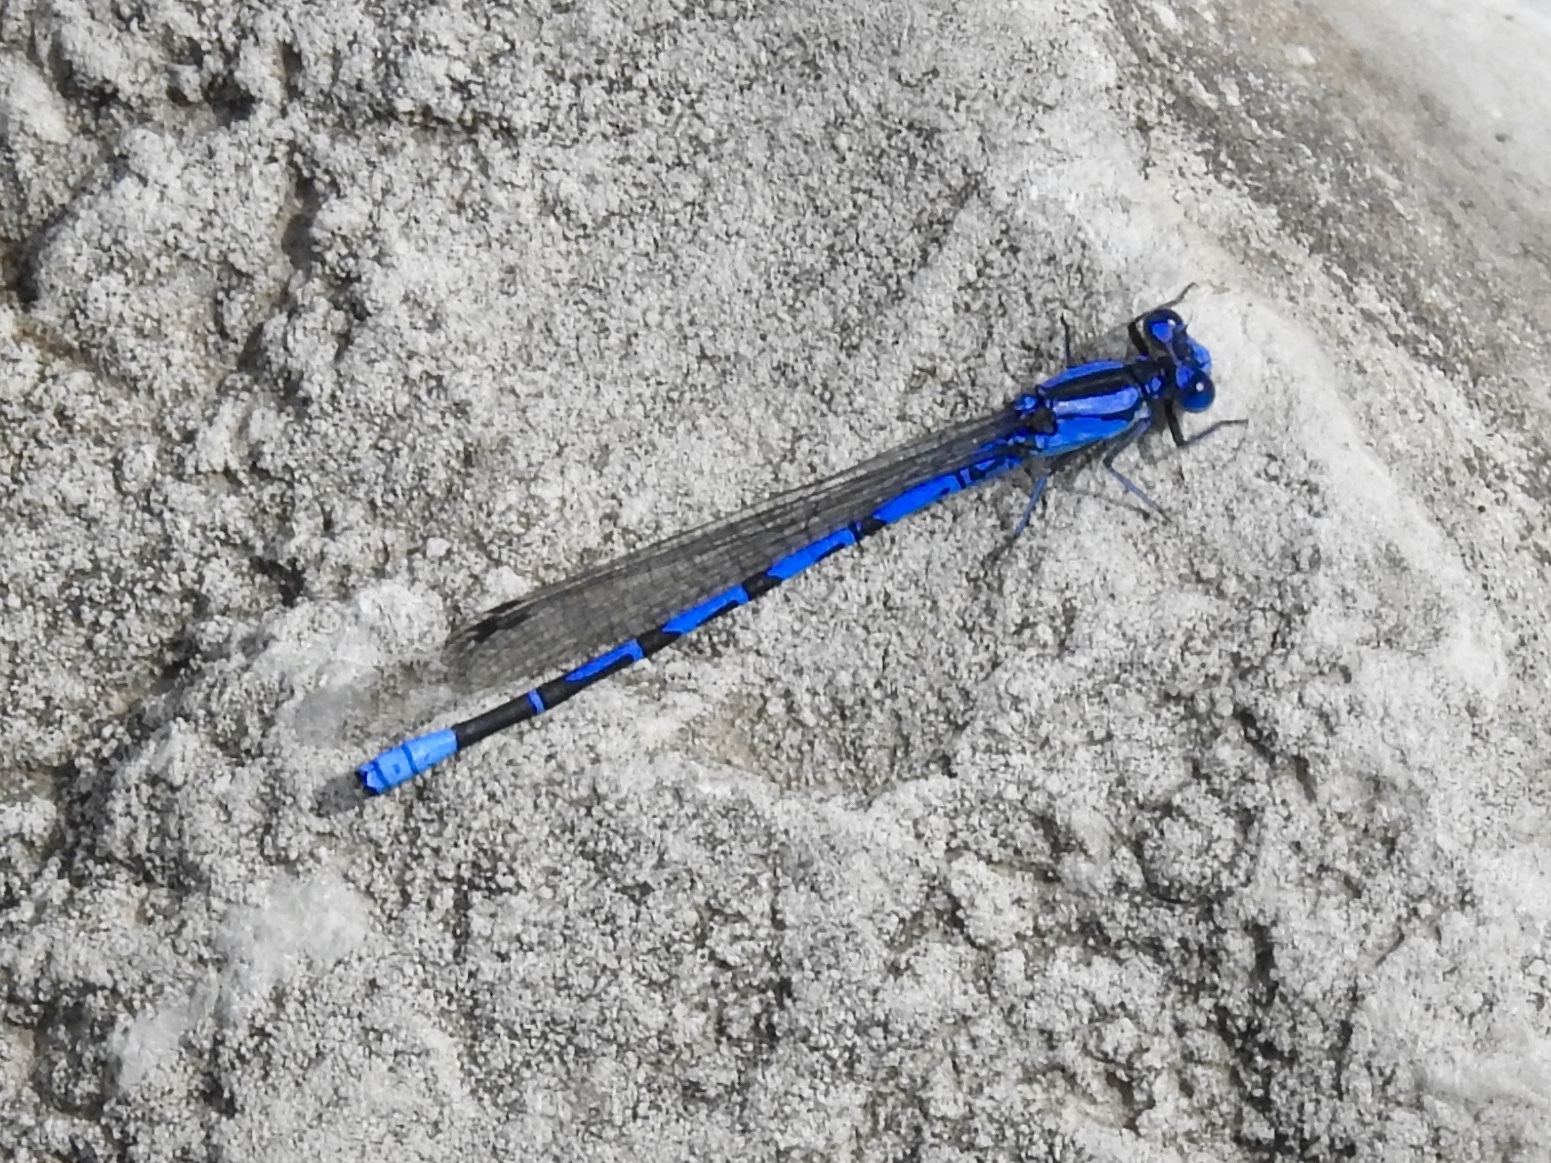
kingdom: Animalia
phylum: Arthropoda
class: Insecta
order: Odonata
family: Coenagrionidae
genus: Argia
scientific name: Argia funebris
